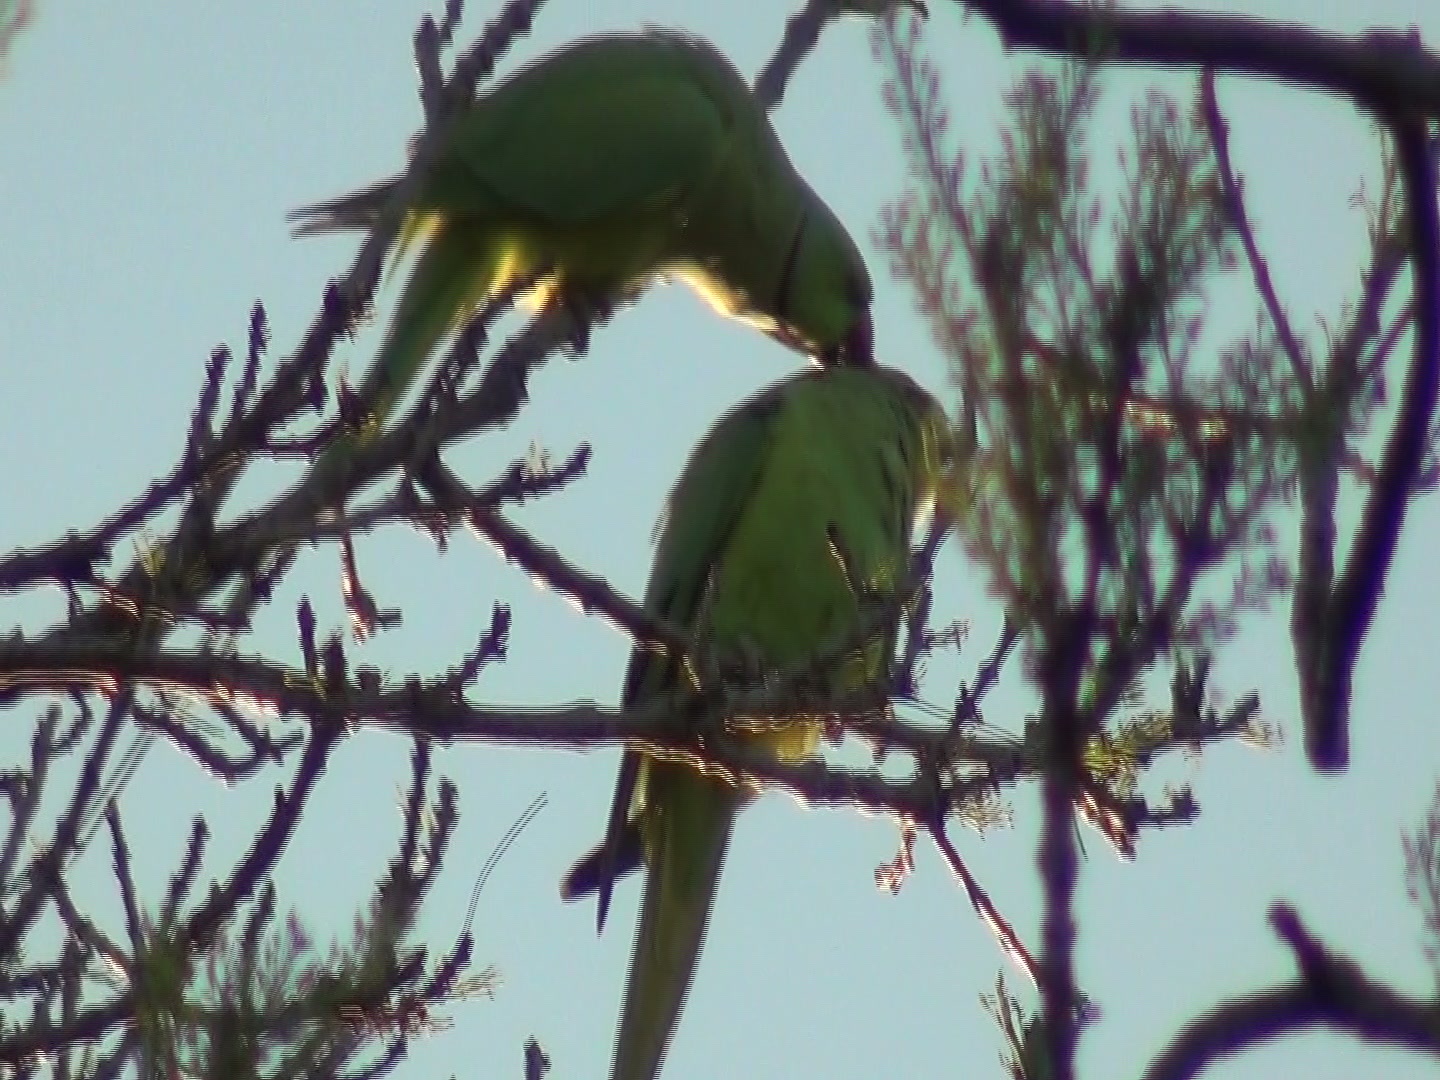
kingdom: Animalia
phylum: Chordata
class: Aves
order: Psittaciformes
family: Psittacidae
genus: Psittacula
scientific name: Psittacula krameri
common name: Rose-ringed parakeet
